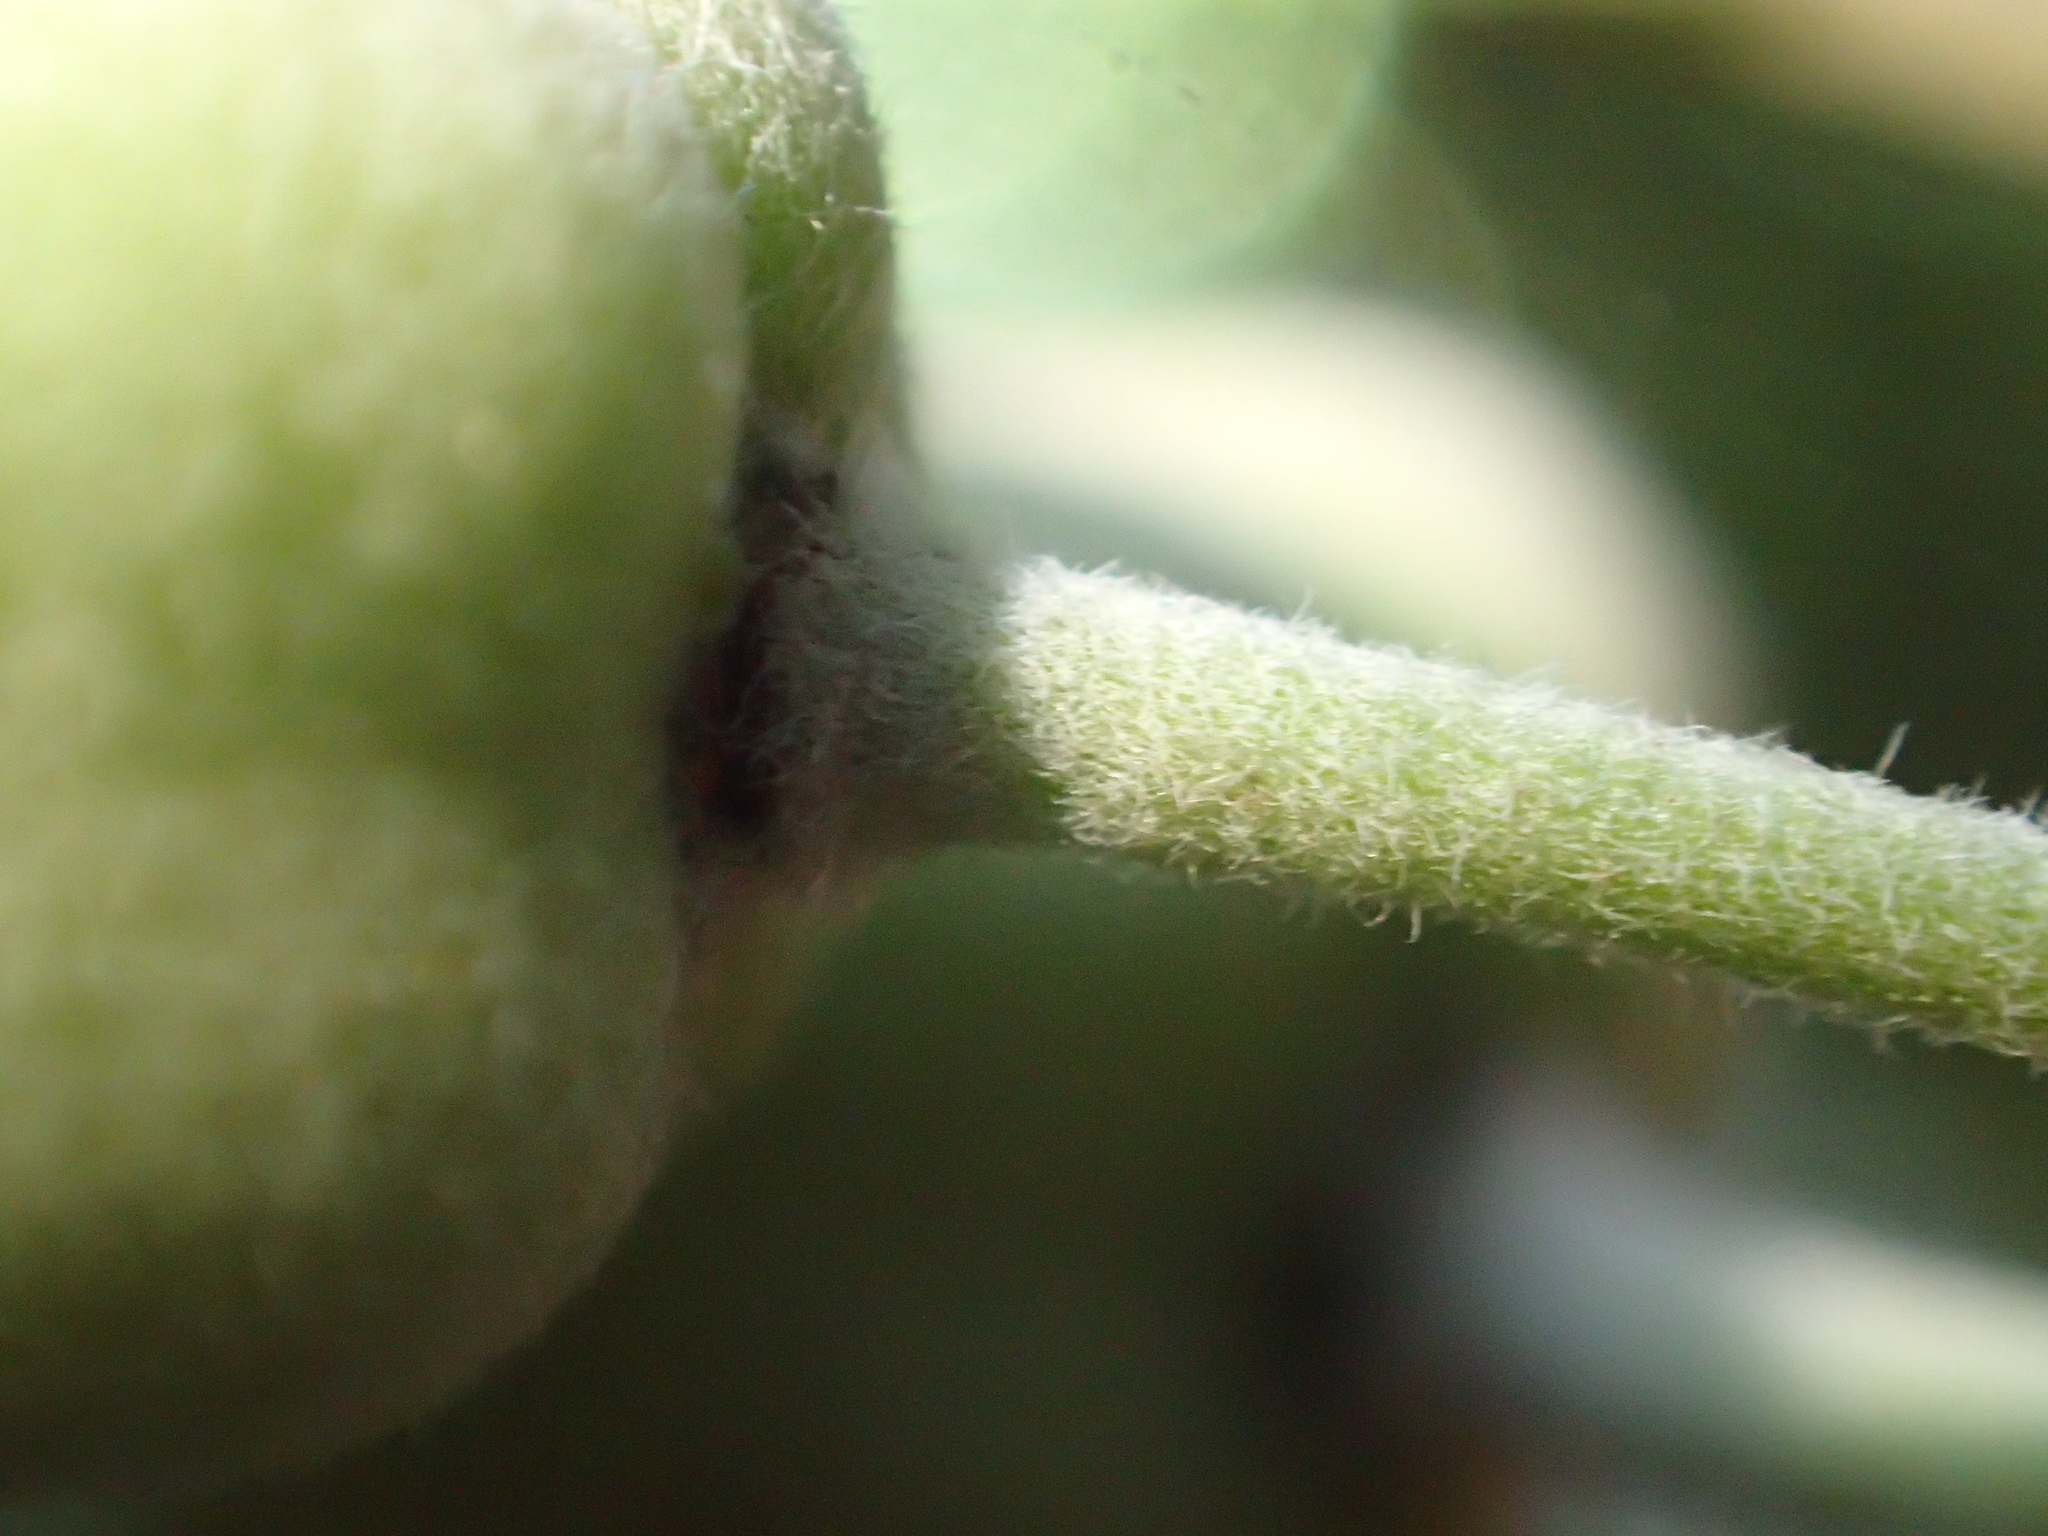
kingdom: Plantae
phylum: Tracheophyta
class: Magnoliopsida
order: Apiales
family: Pittosporaceae
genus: Pittosporum
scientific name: Pittosporum ralphii
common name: Ralph's desertwillow
